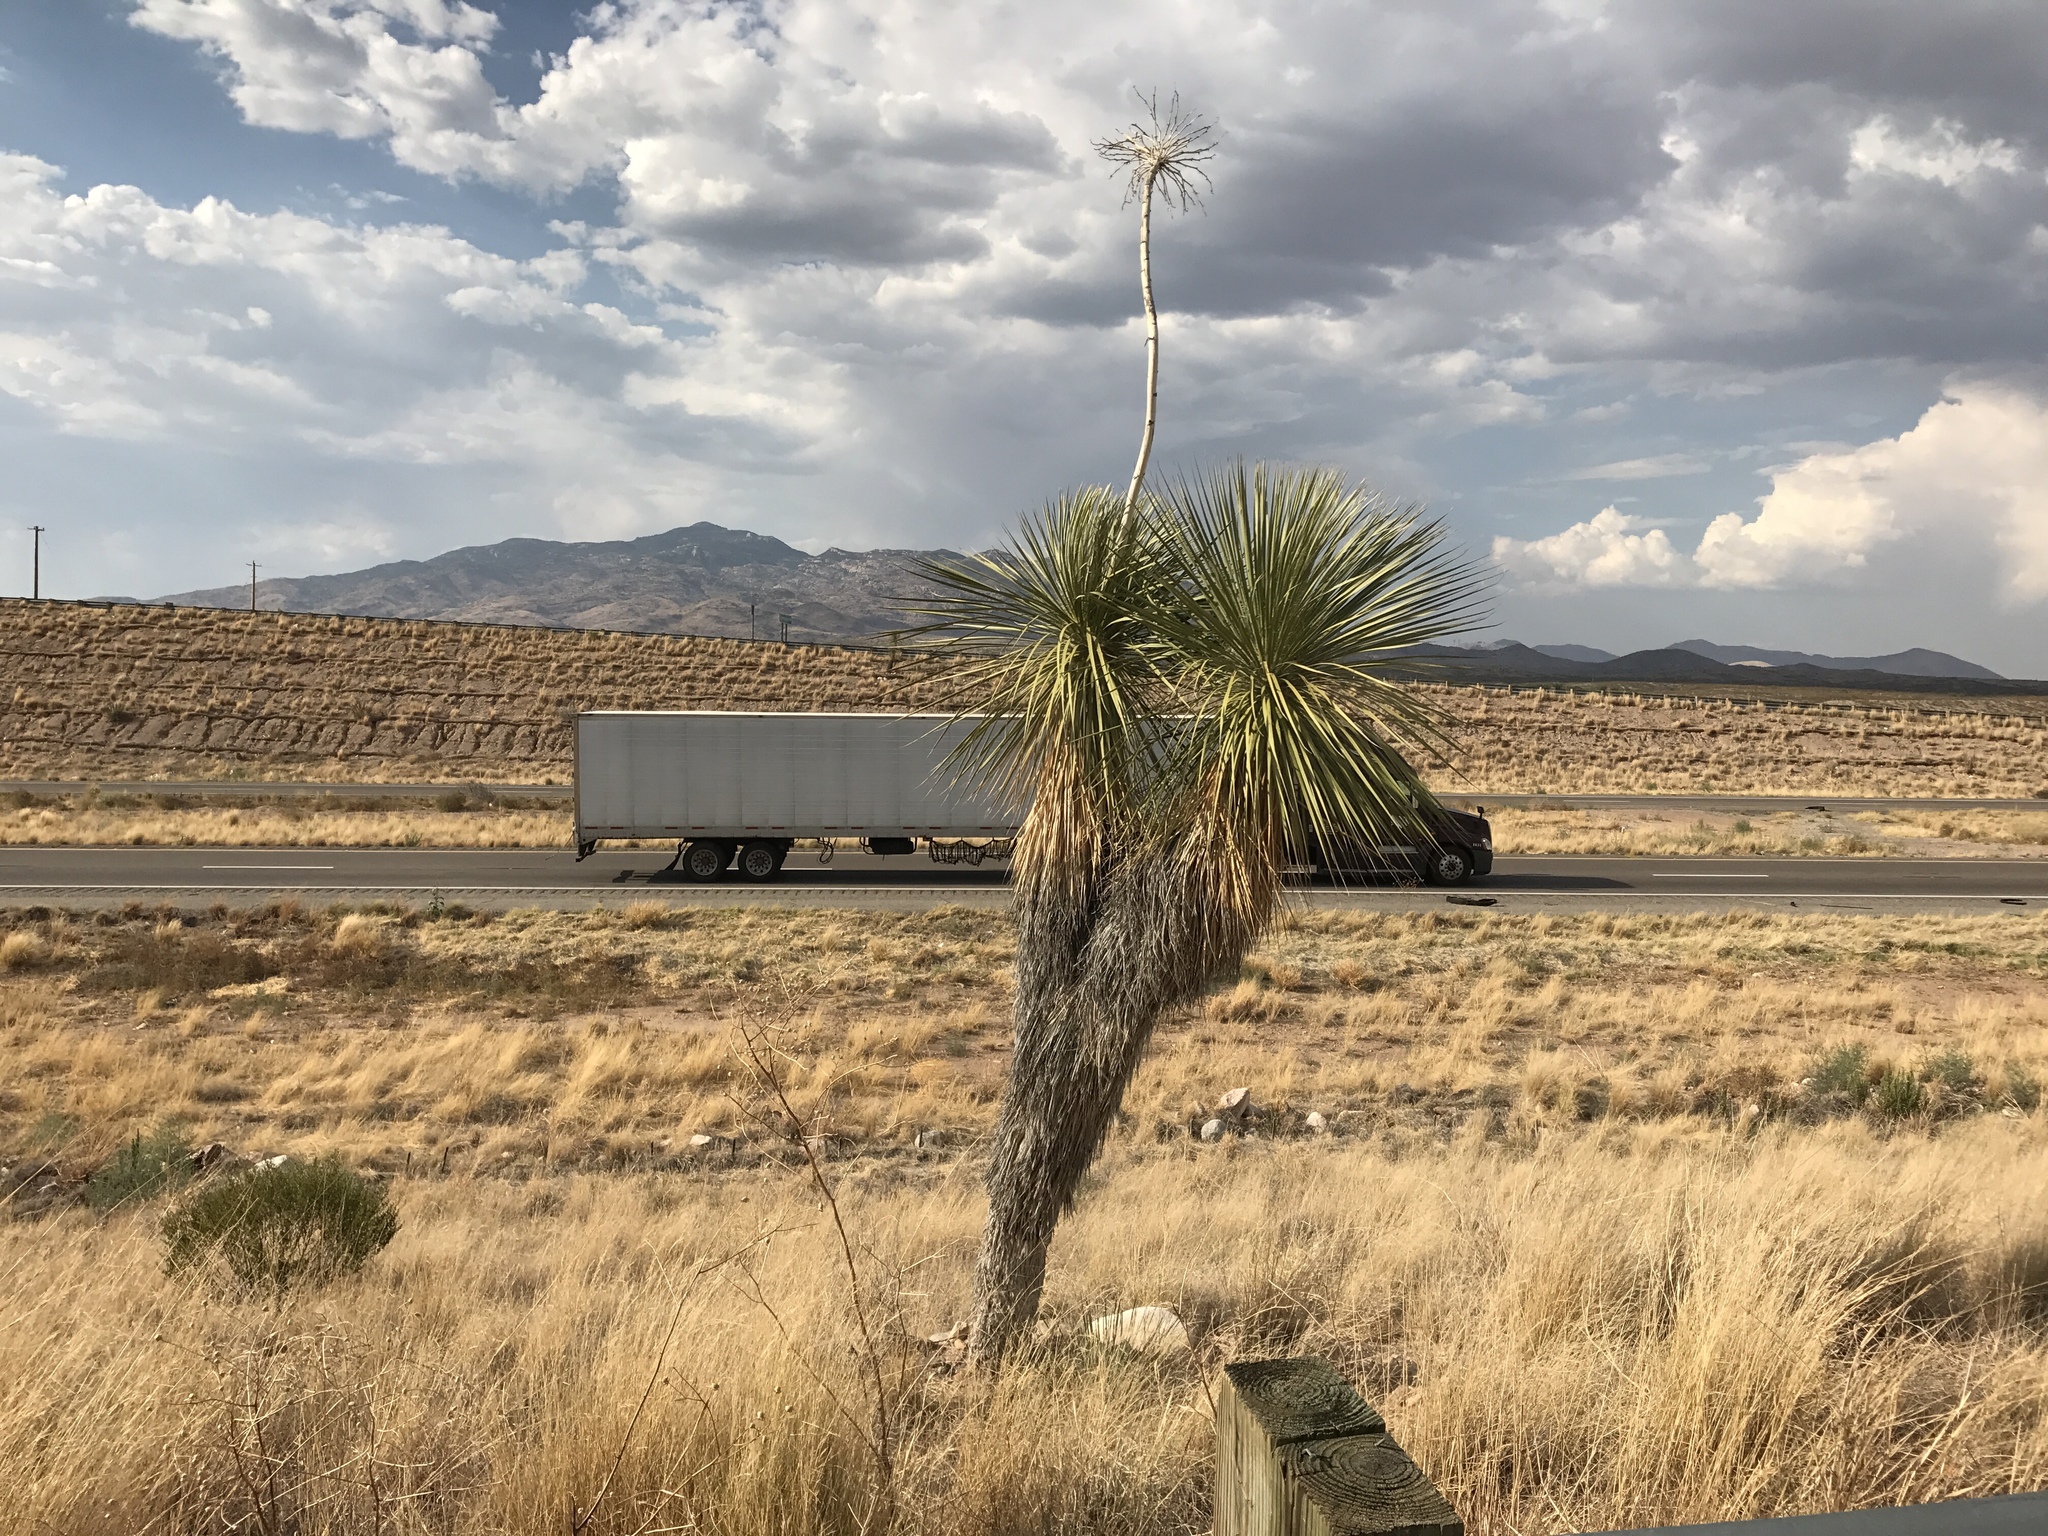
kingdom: Plantae
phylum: Tracheophyta
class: Liliopsida
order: Asparagales
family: Asparagaceae
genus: Yucca
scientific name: Yucca elata
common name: Palmella
